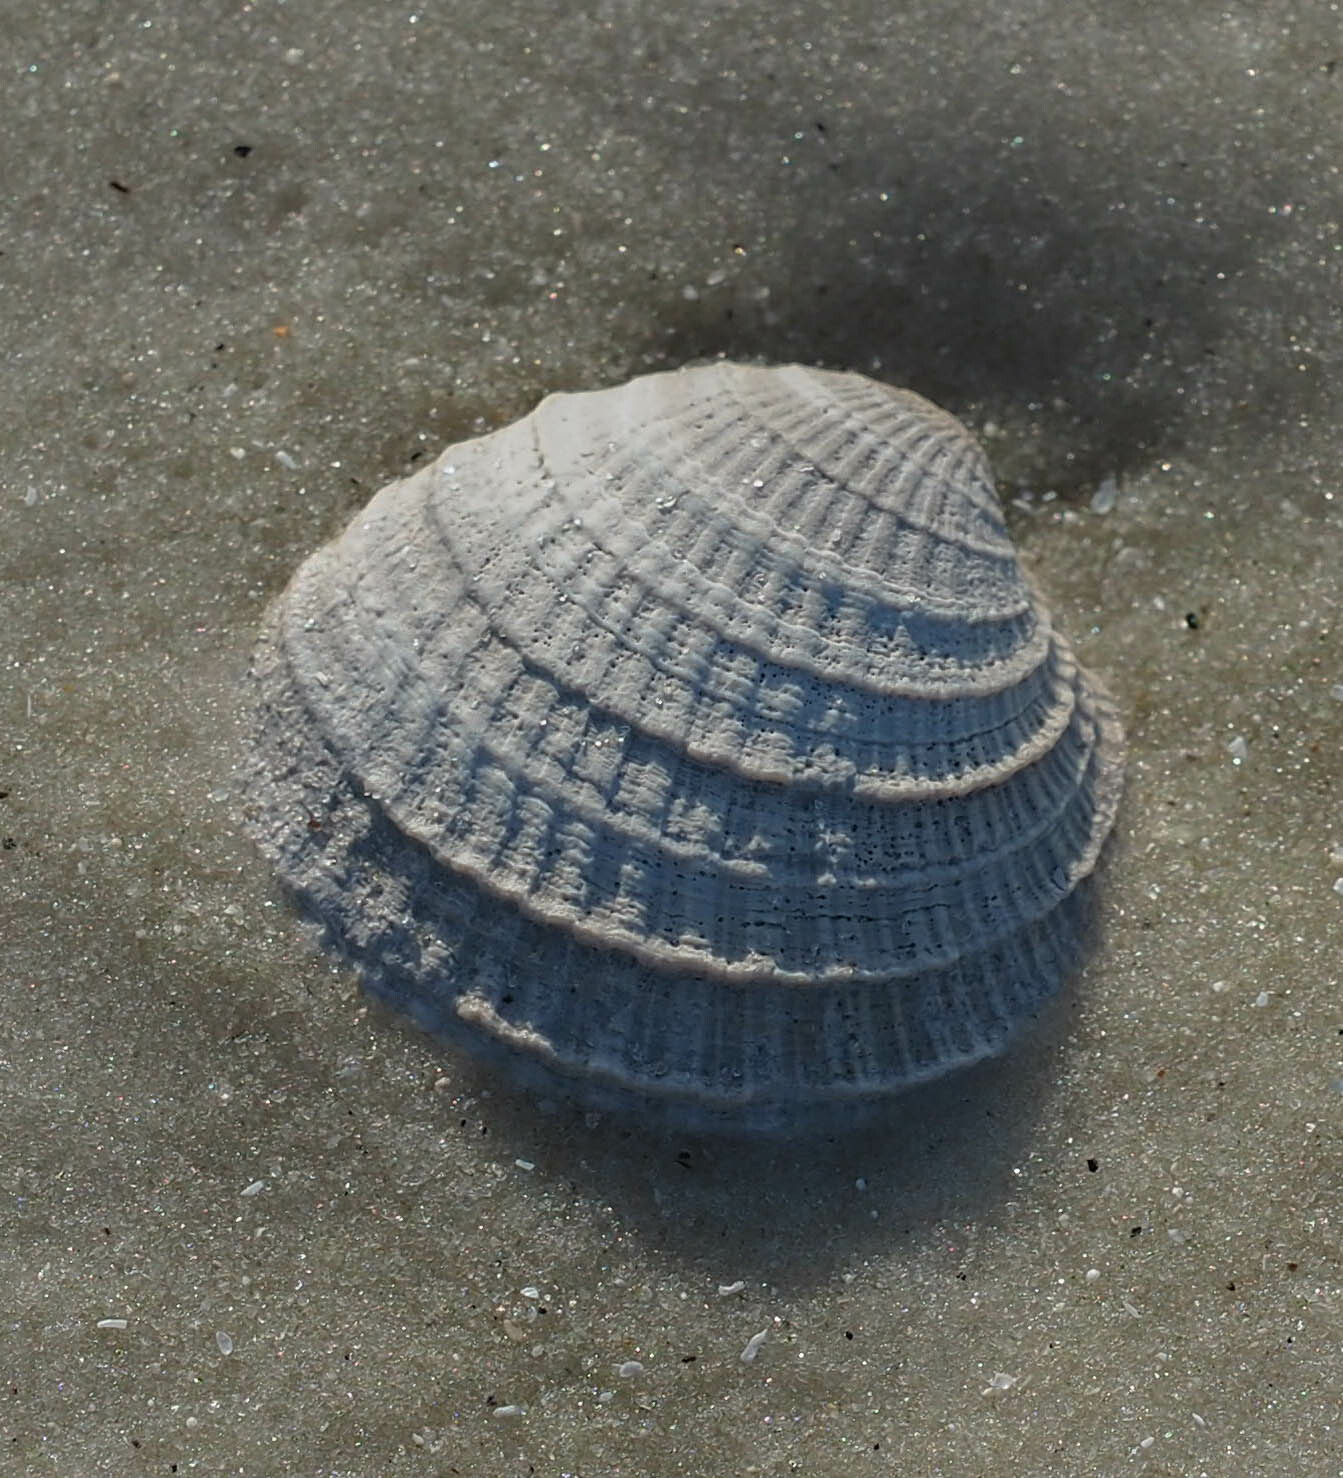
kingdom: Animalia
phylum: Mollusca
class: Bivalvia
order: Venerida
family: Veneridae
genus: Chione
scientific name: Chione elevata
